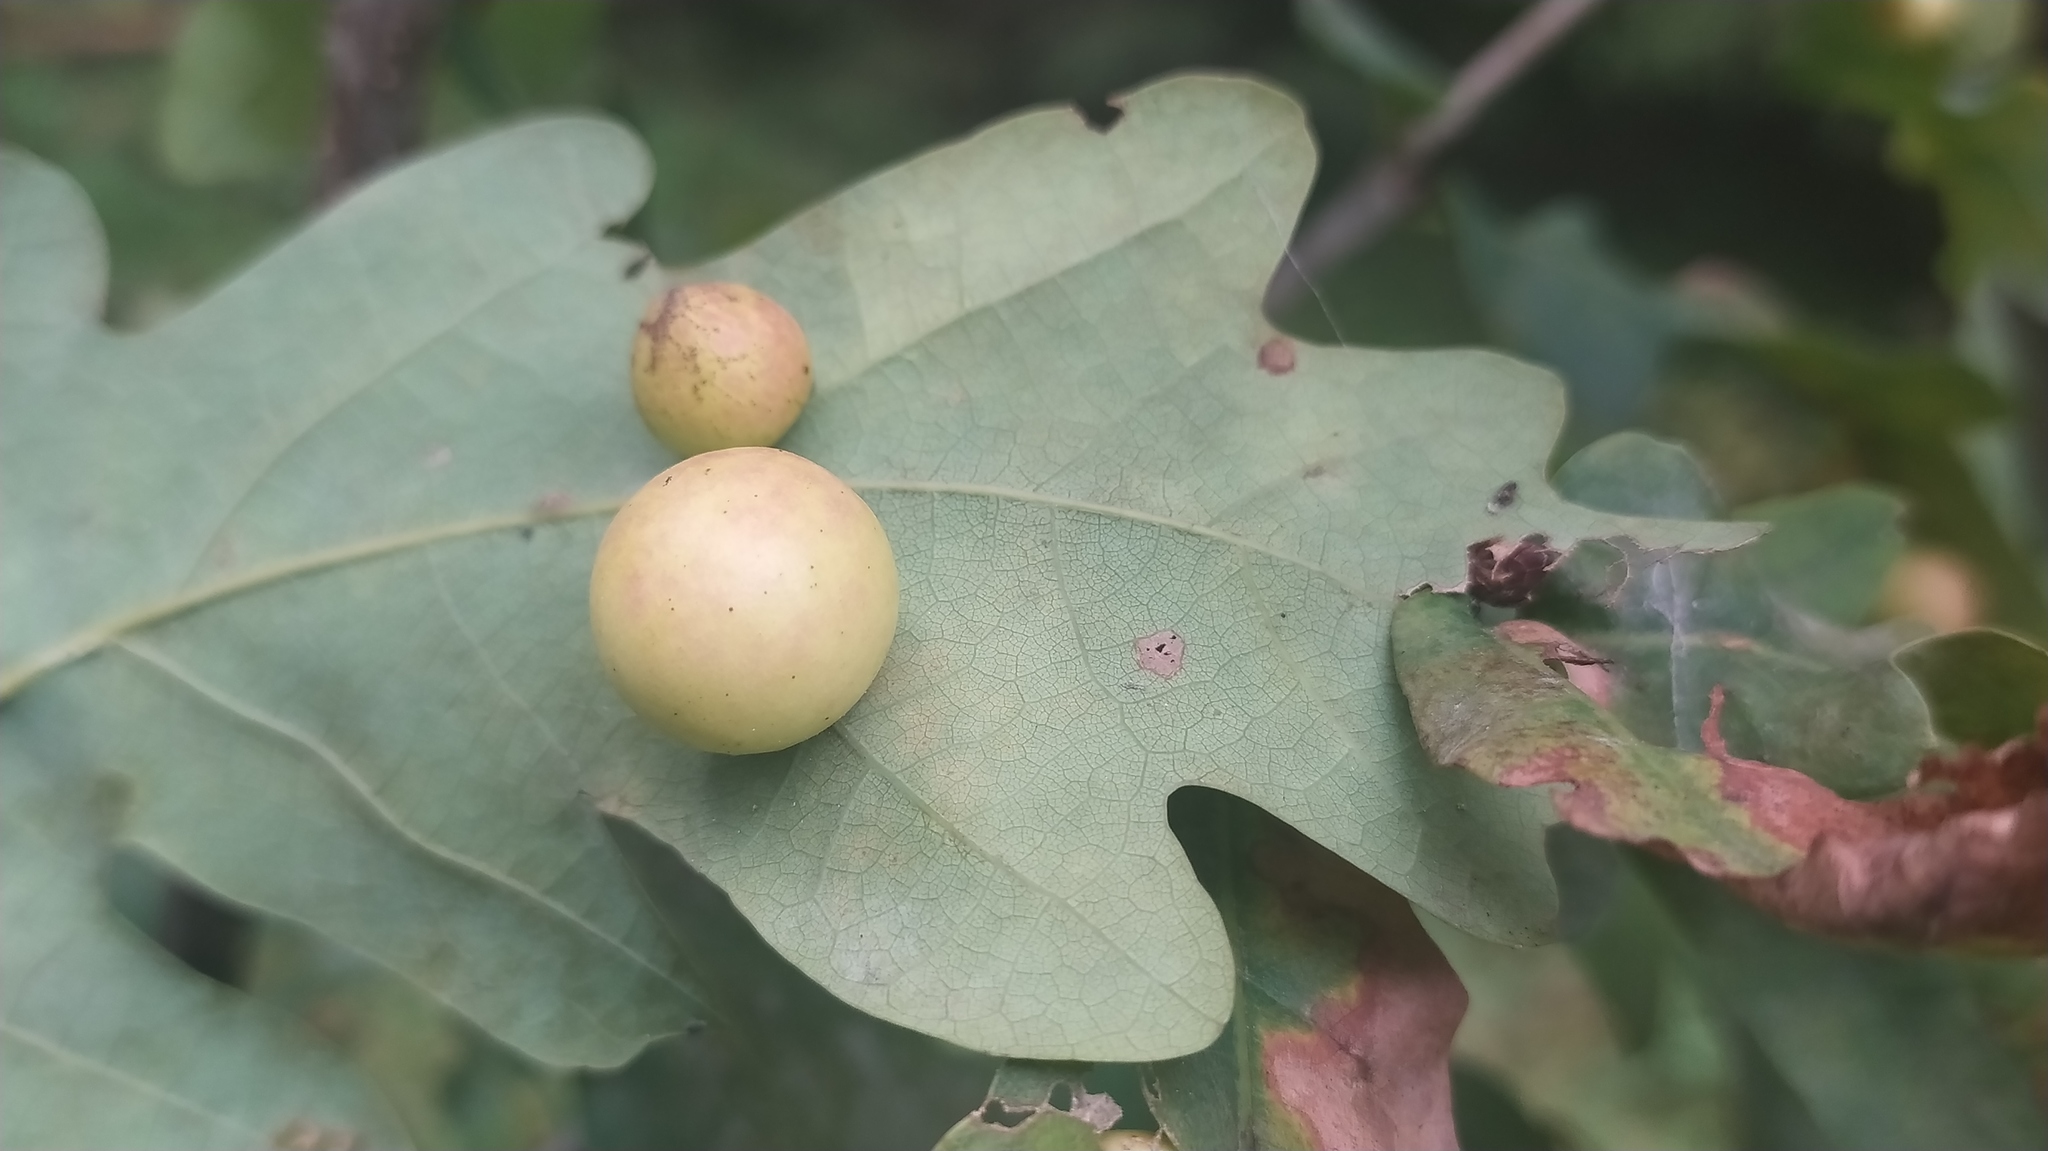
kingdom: Animalia
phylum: Arthropoda
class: Insecta
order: Hymenoptera
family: Cynipidae
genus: Cynips
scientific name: Cynips quercusfolii
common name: Cherry gall
